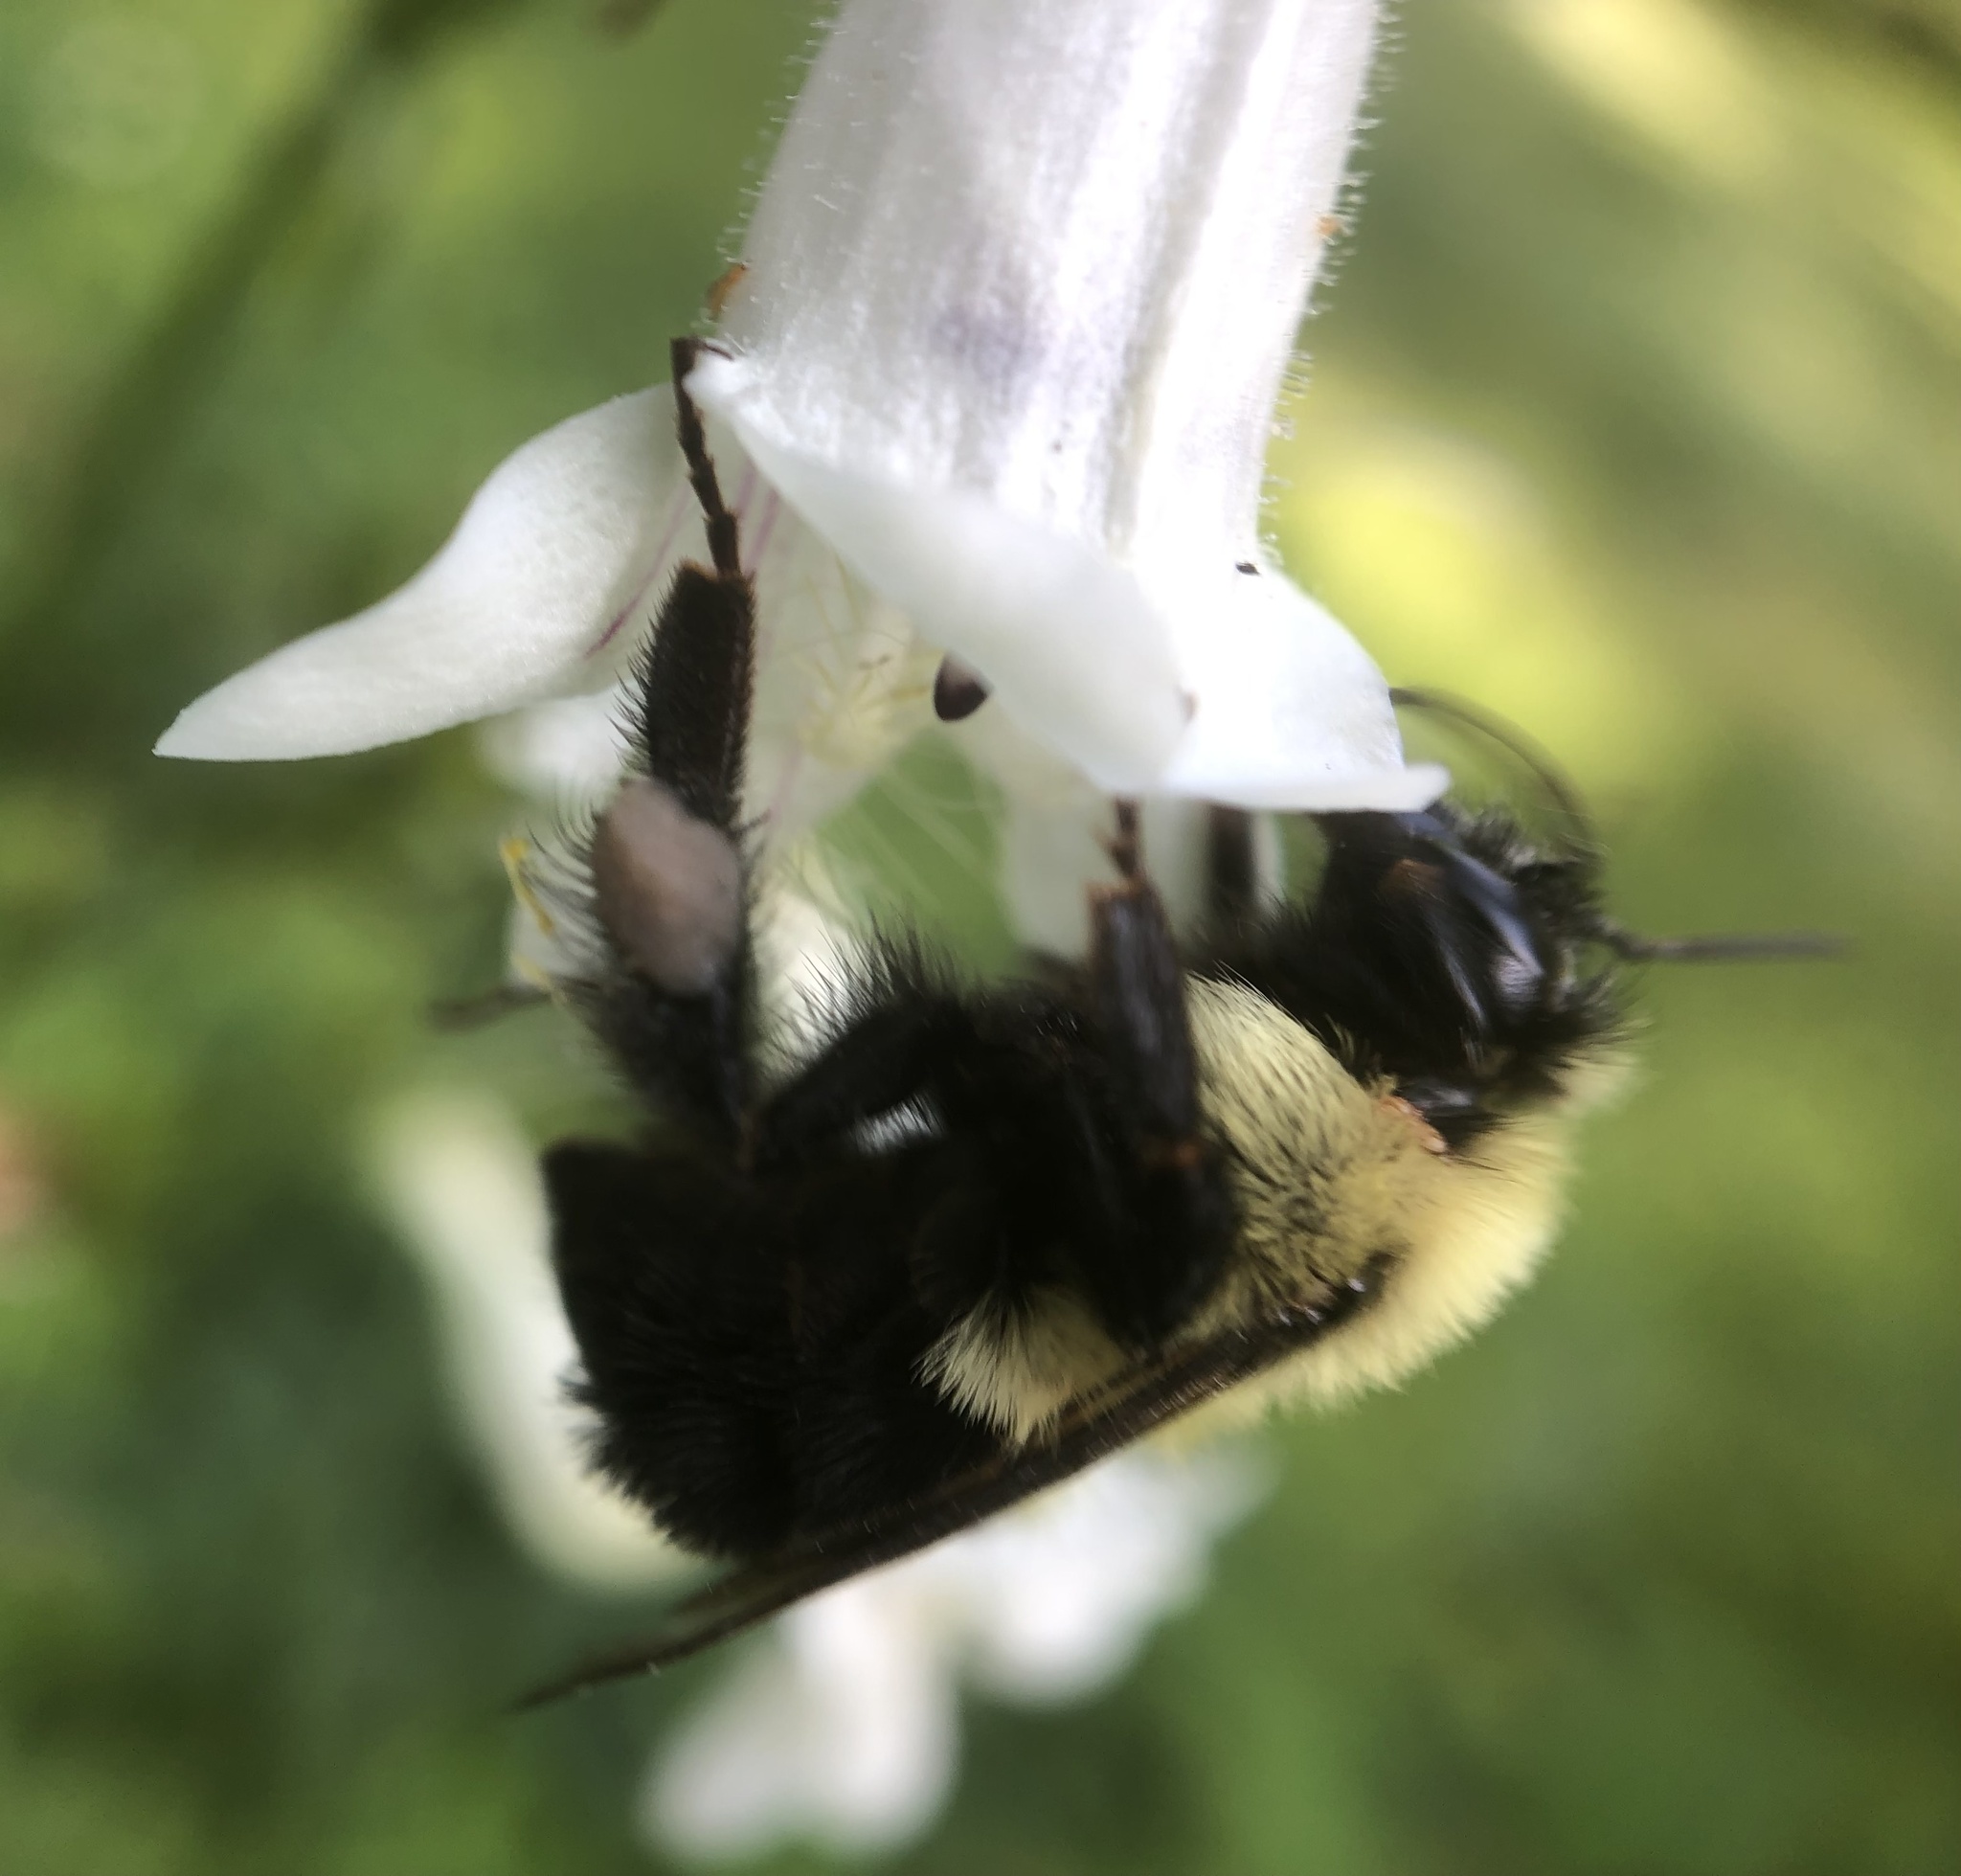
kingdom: Animalia
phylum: Arthropoda
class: Insecta
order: Hymenoptera
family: Apidae
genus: Bombus
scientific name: Bombus bimaculatus
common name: Two-spotted bumble bee
